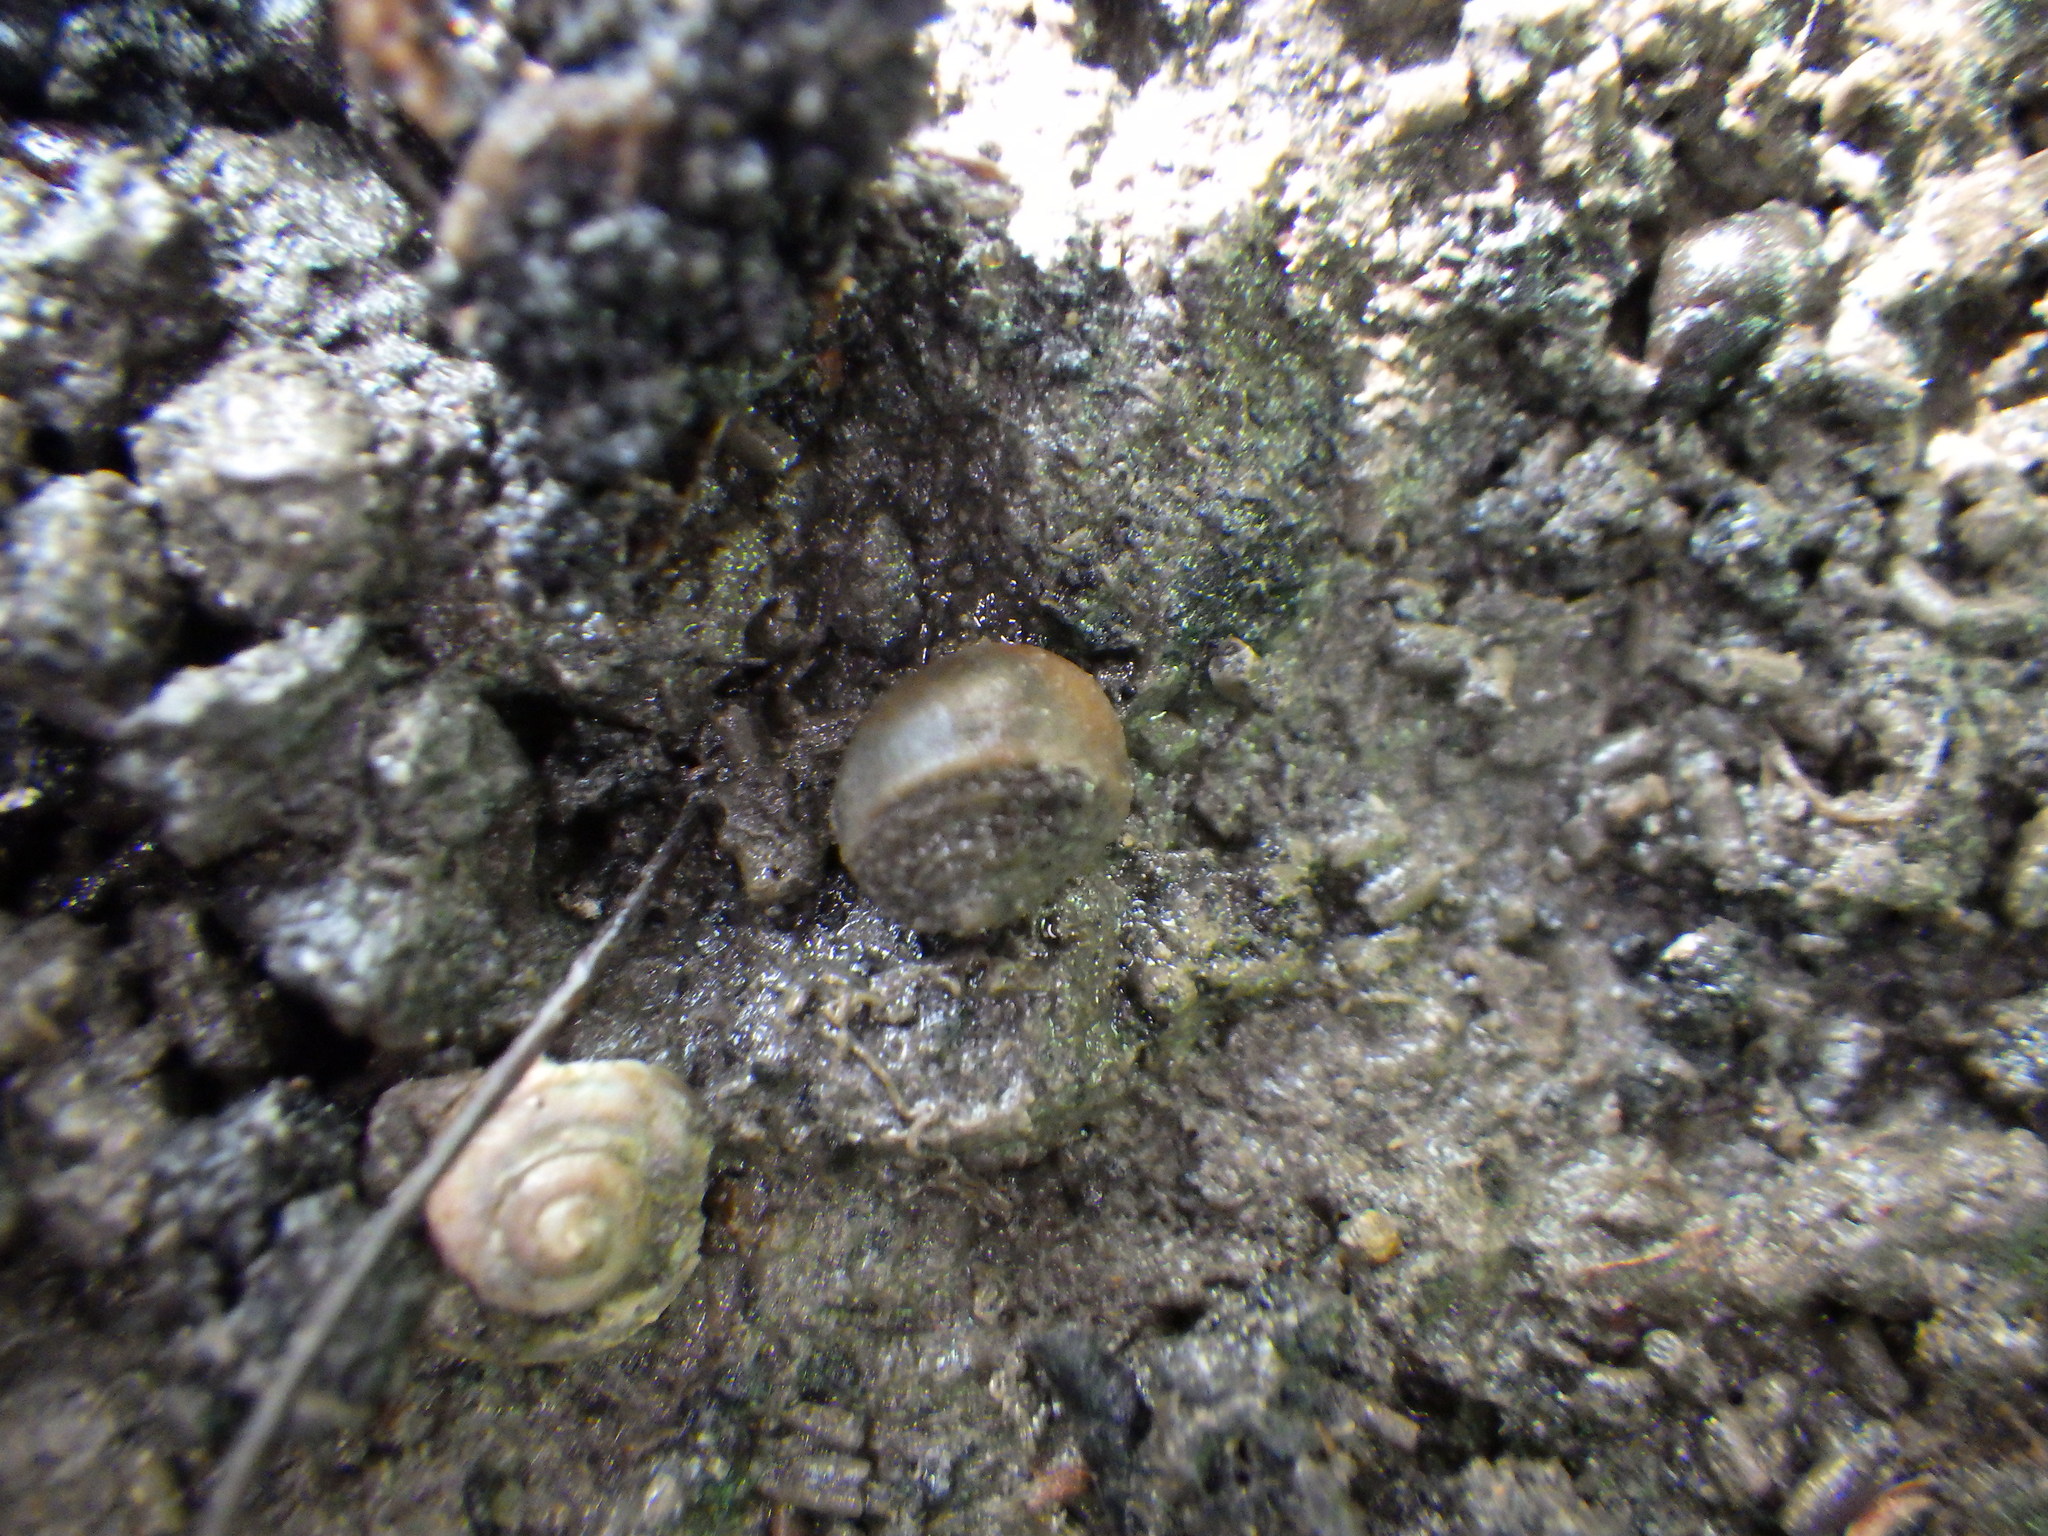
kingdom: Animalia
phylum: Mollusca
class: Gastropoda
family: Amphibolidae
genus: Amphibola
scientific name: Amphibola crenata
